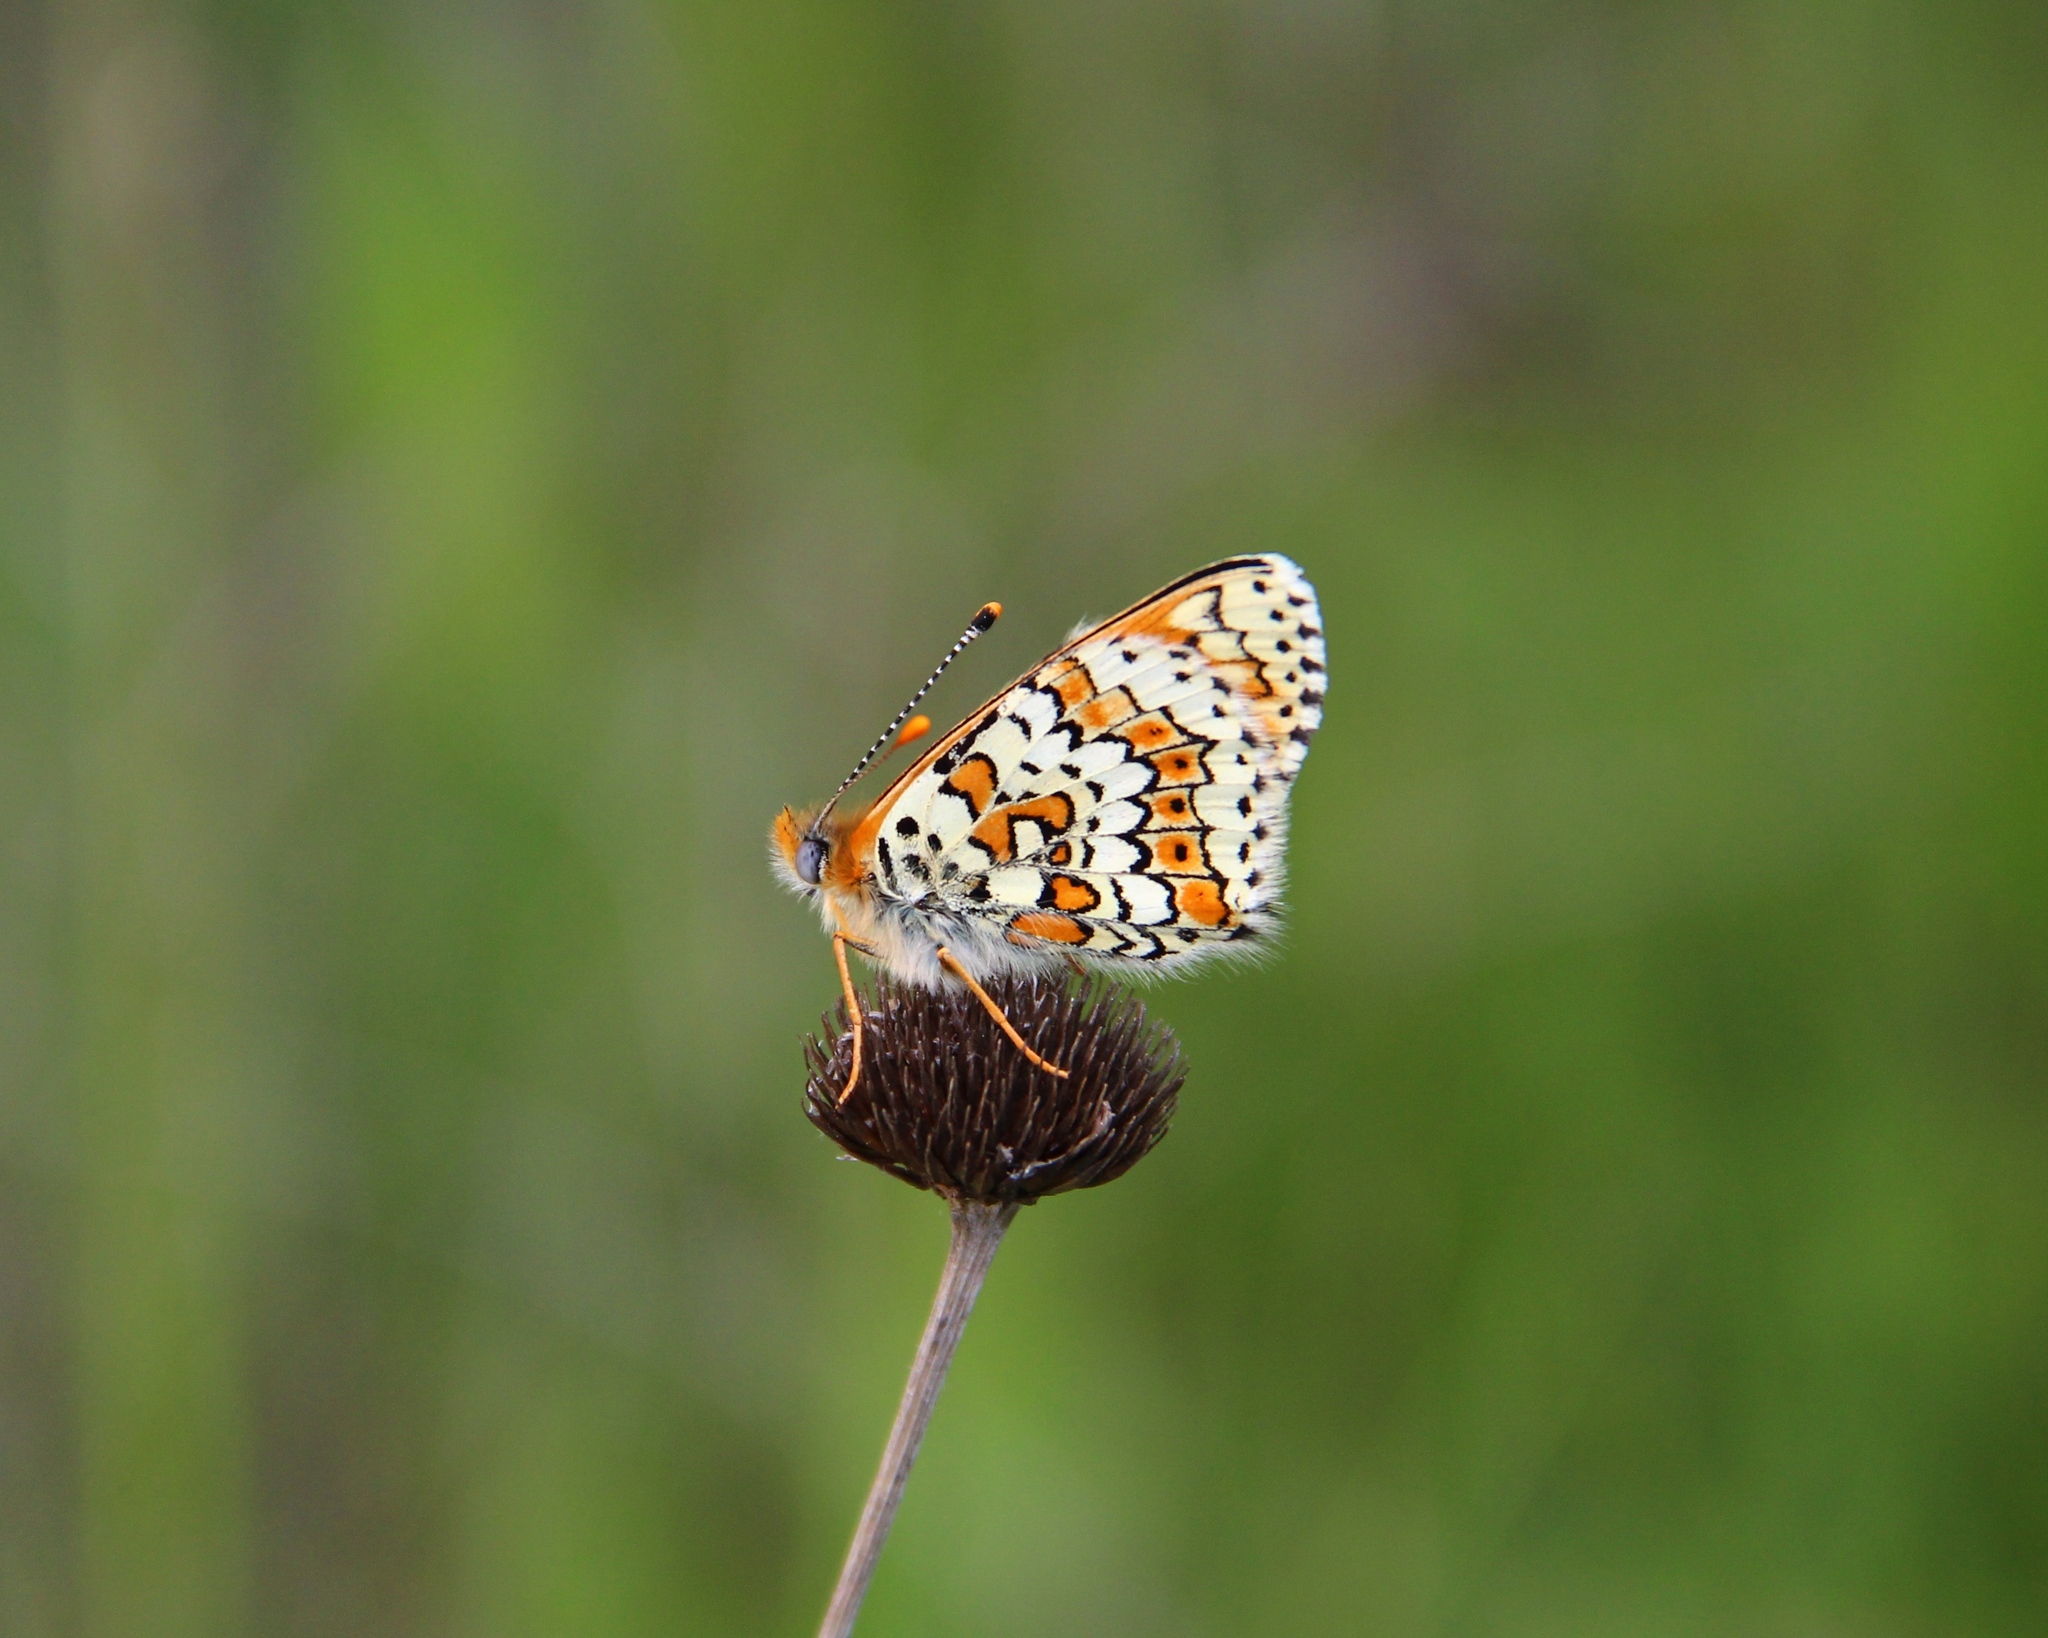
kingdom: Animalia
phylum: Arthropoda
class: Insecta
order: Lepidoptera
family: Nymphalidae
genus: Melitaea
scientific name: Melitaea cinxia
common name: Glanville fritillary
